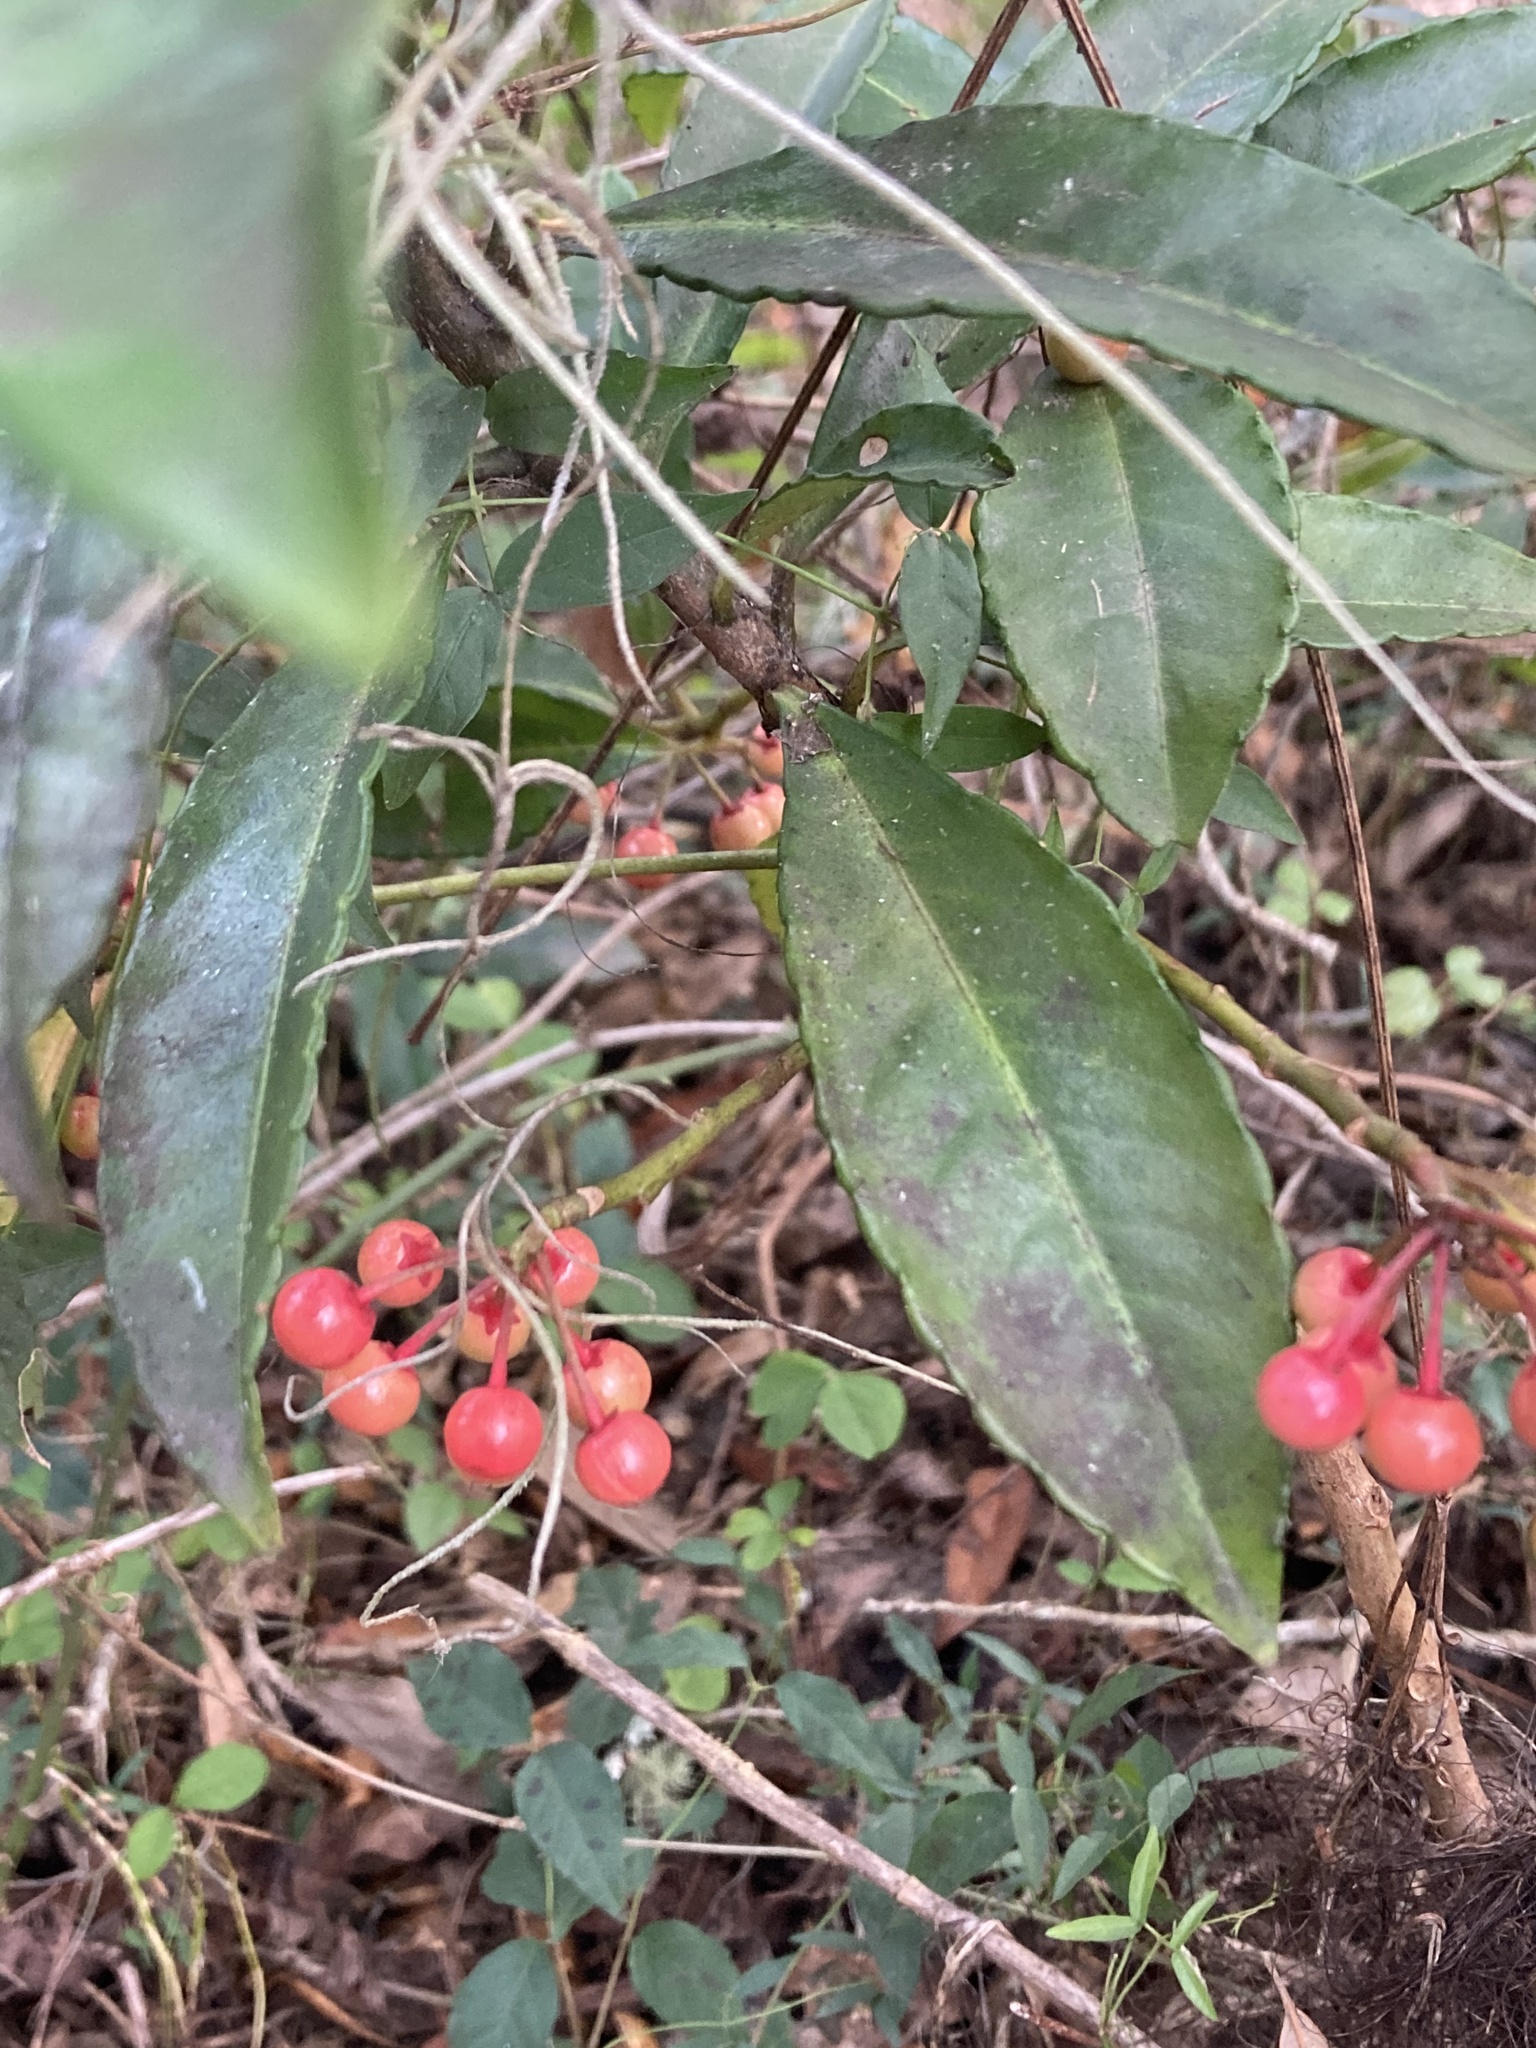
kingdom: Plantae
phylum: Tracheophyta
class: Magnoliopsida
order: Ericales
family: Primulaceae
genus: Ardisia
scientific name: Ardisia crenata
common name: Hen's eyes
